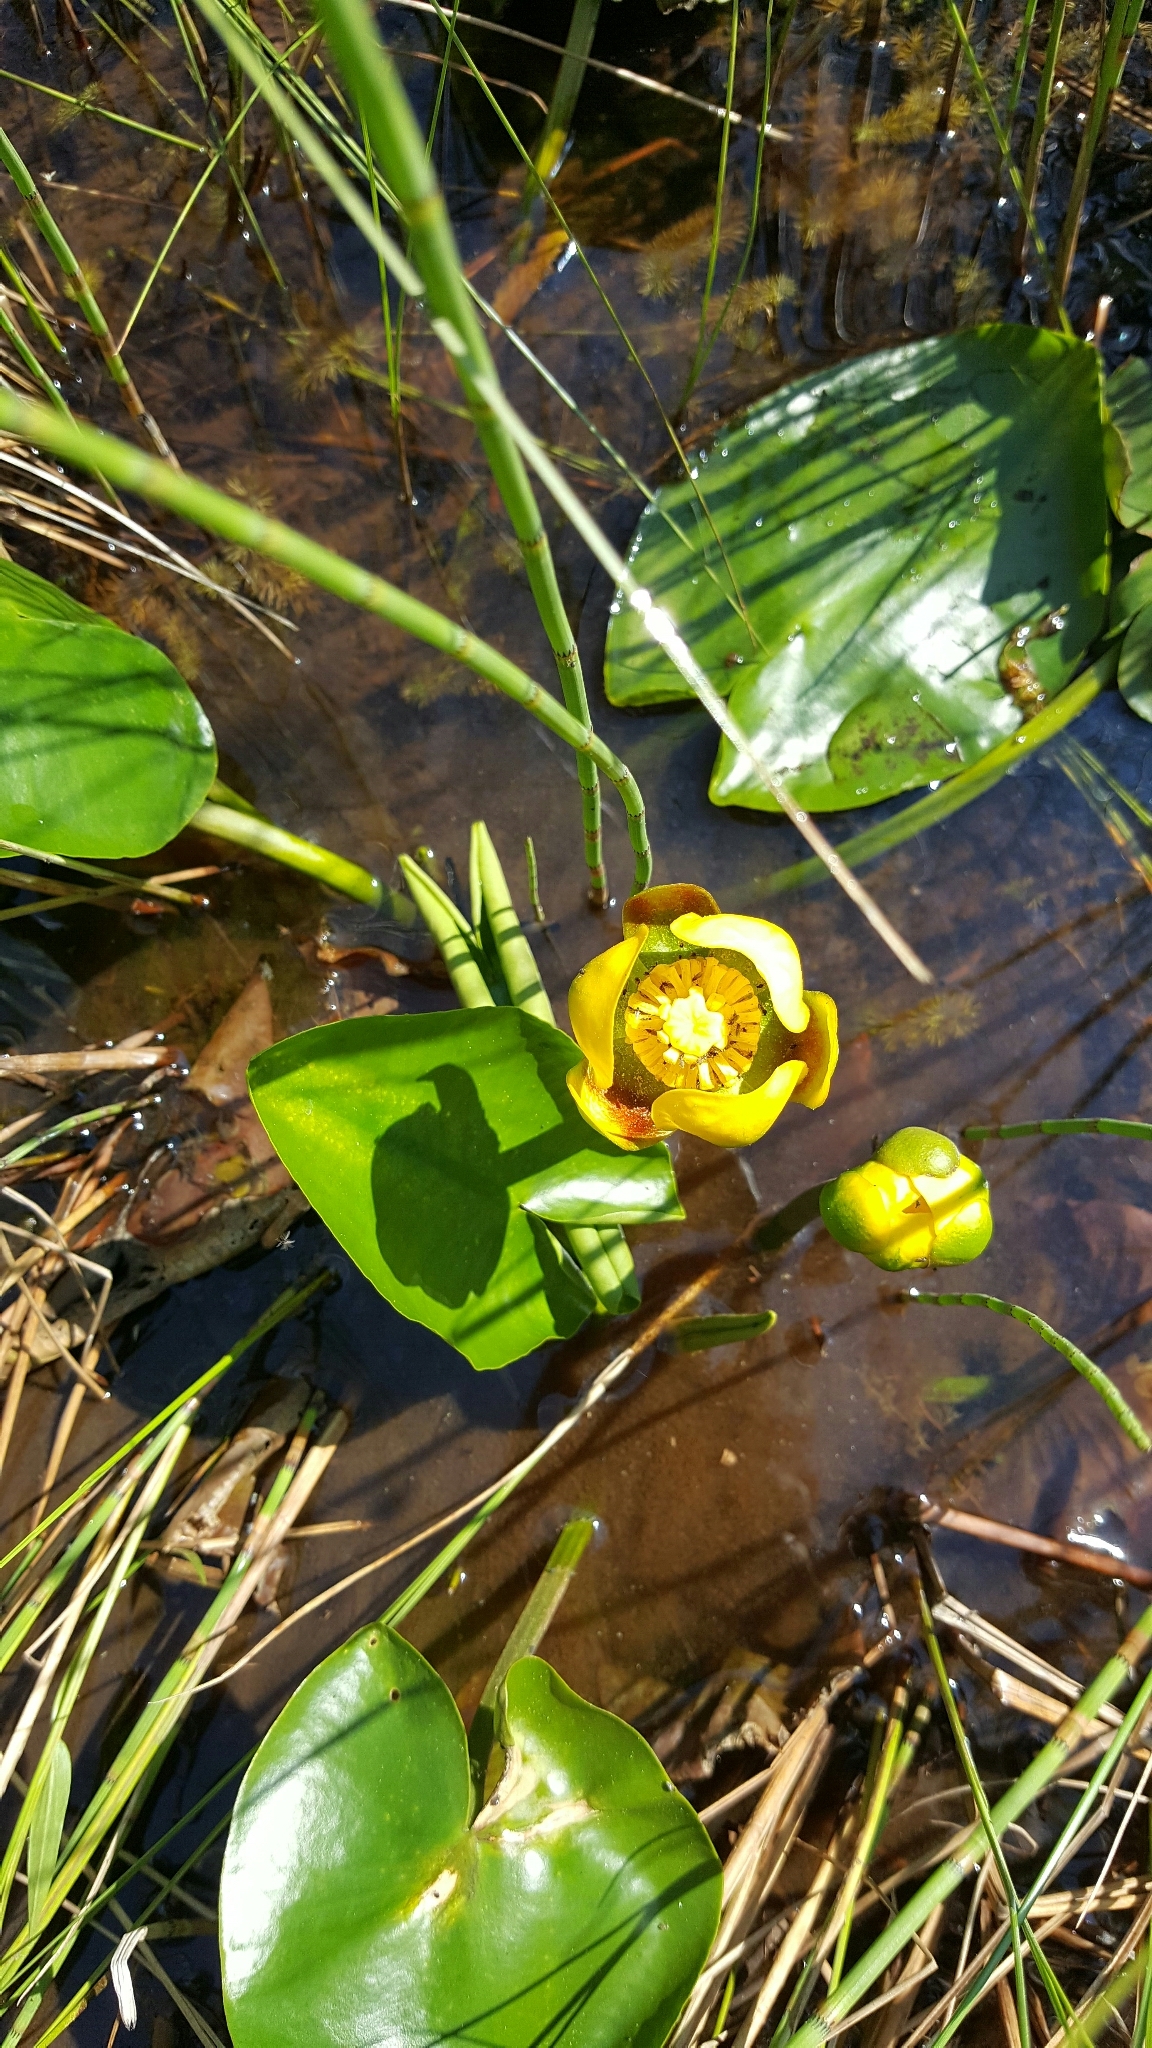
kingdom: Plantae
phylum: Tracheophyta
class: Magnoliopsida
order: Nymphaeales
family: Nymphaeaceae
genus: Nuphar
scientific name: Nuphar variegata
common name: Beaver-root
